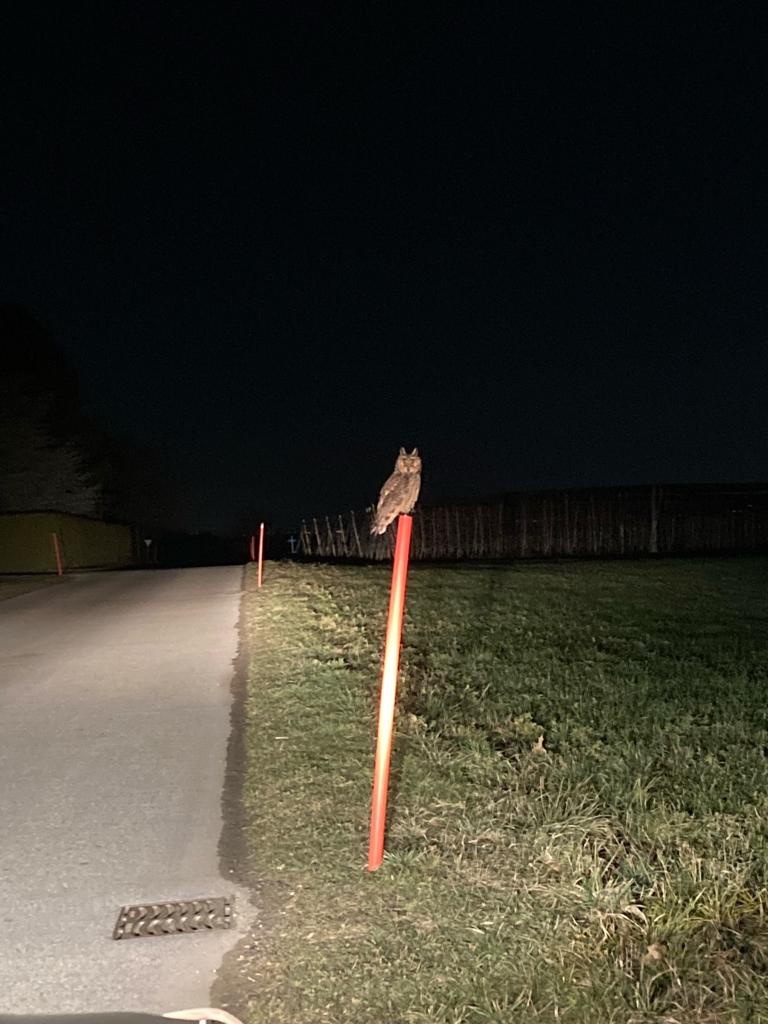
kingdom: Animalia
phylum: Chordata
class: Aves
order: Strigiformes
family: Strigidae
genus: Asio
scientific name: Asio otus
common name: Long-eared owl
